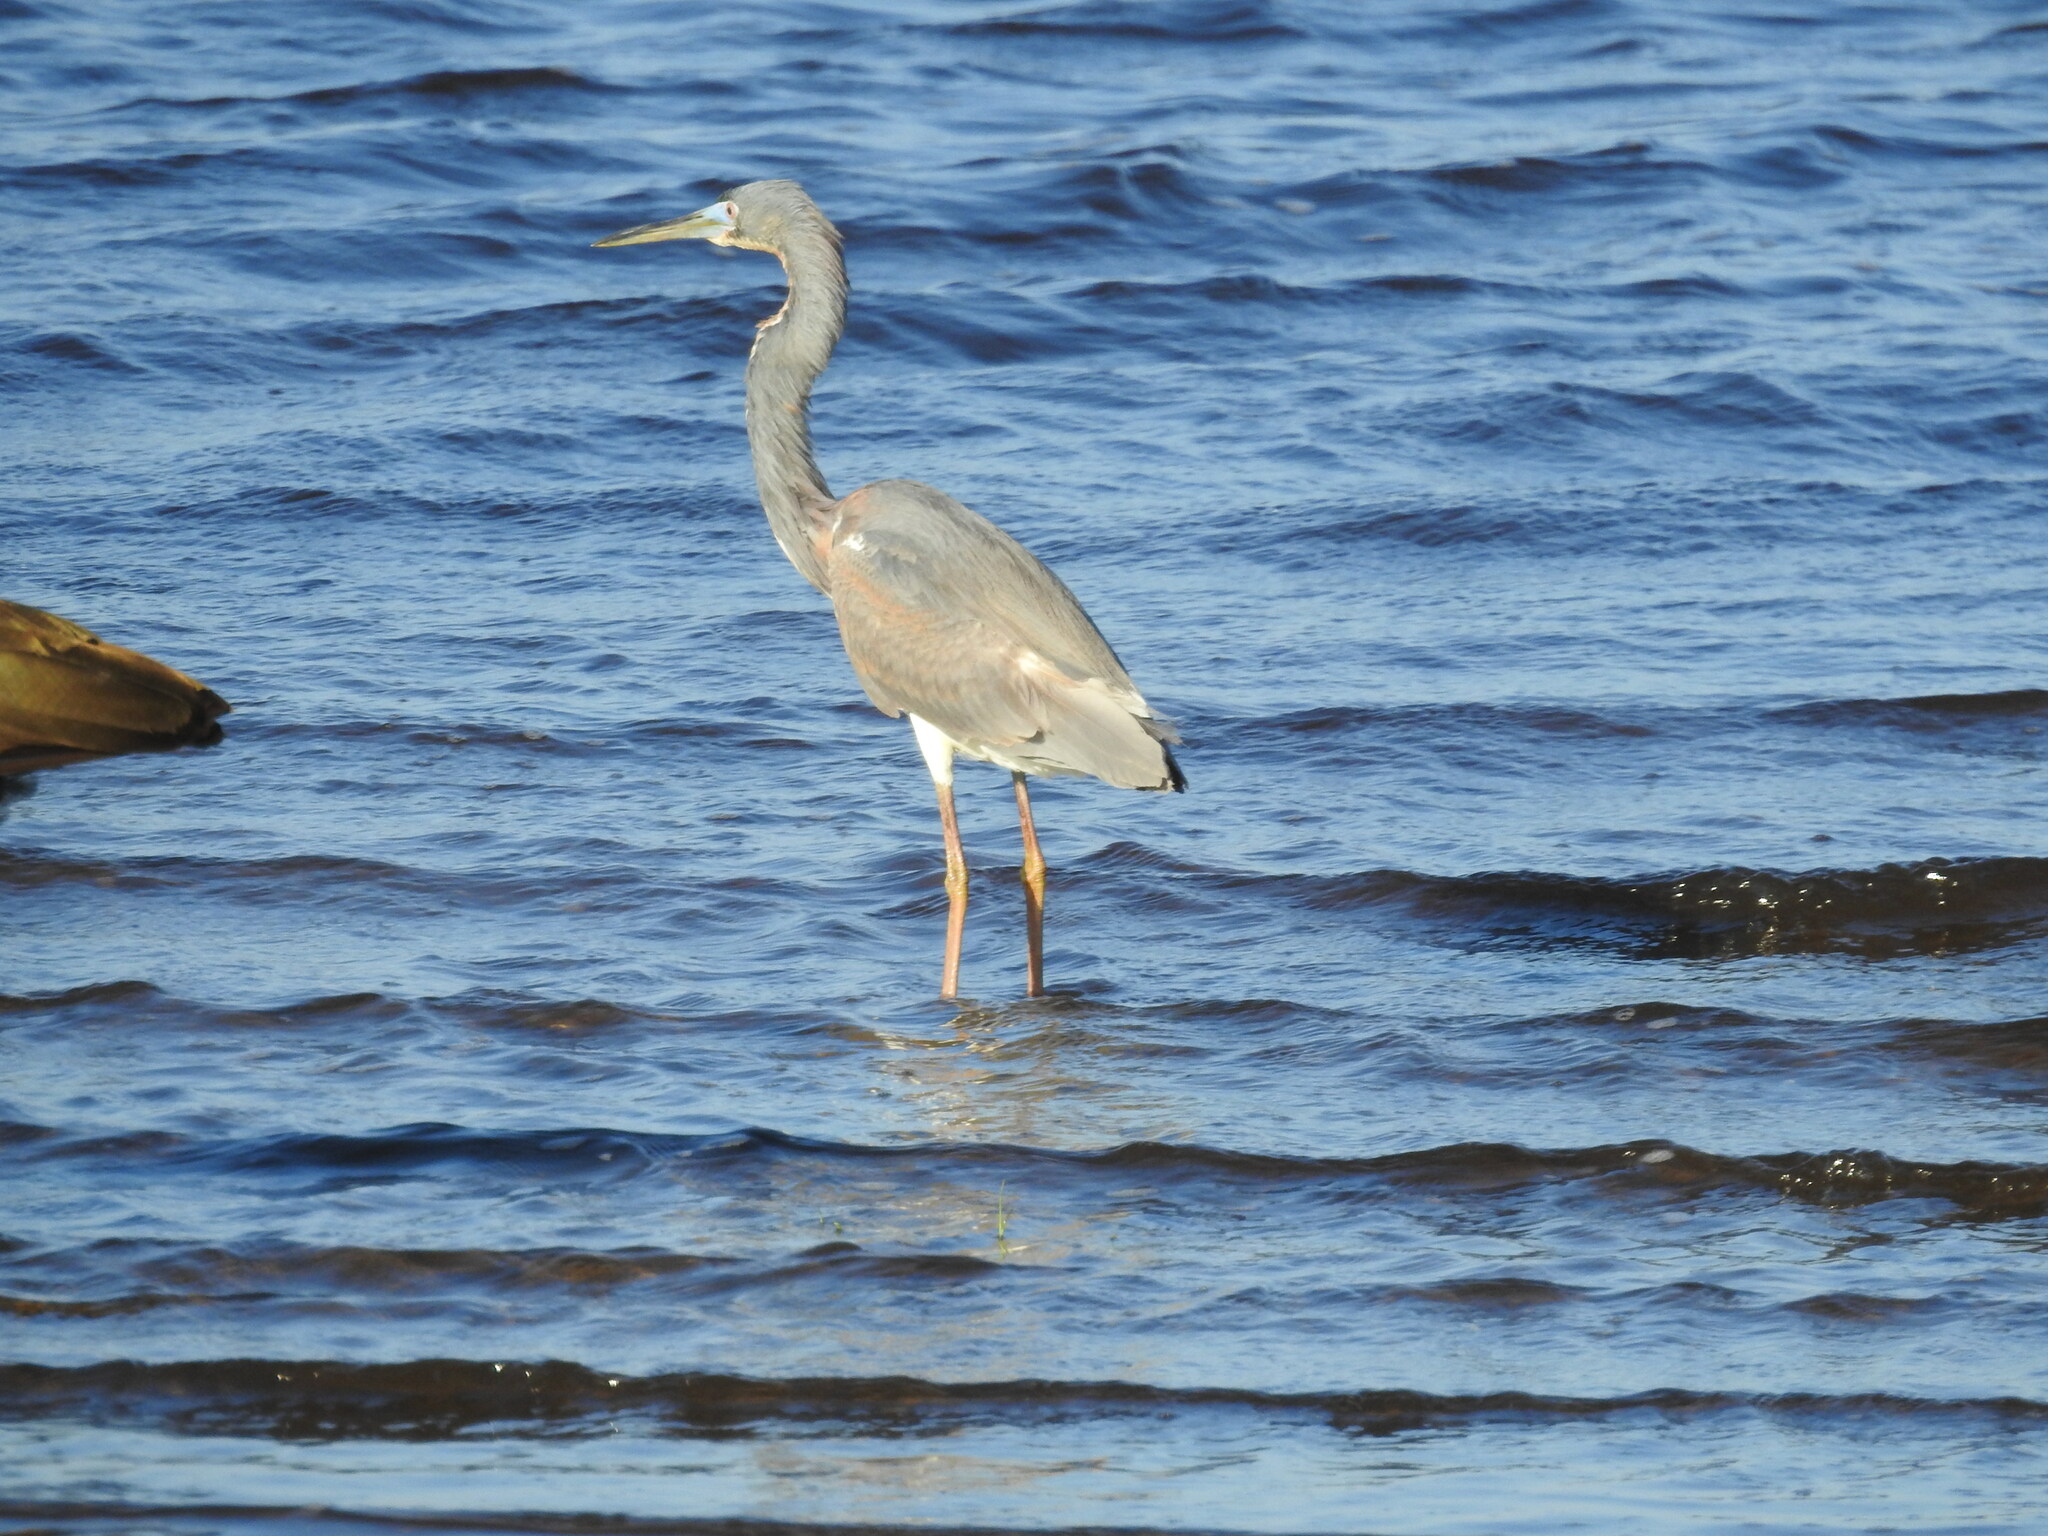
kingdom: Animalia
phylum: Chordata
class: Aves
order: Pelecaniformes
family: Ardeidae
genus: Egretta
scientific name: Egretta tricolor
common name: Tricolored heron
